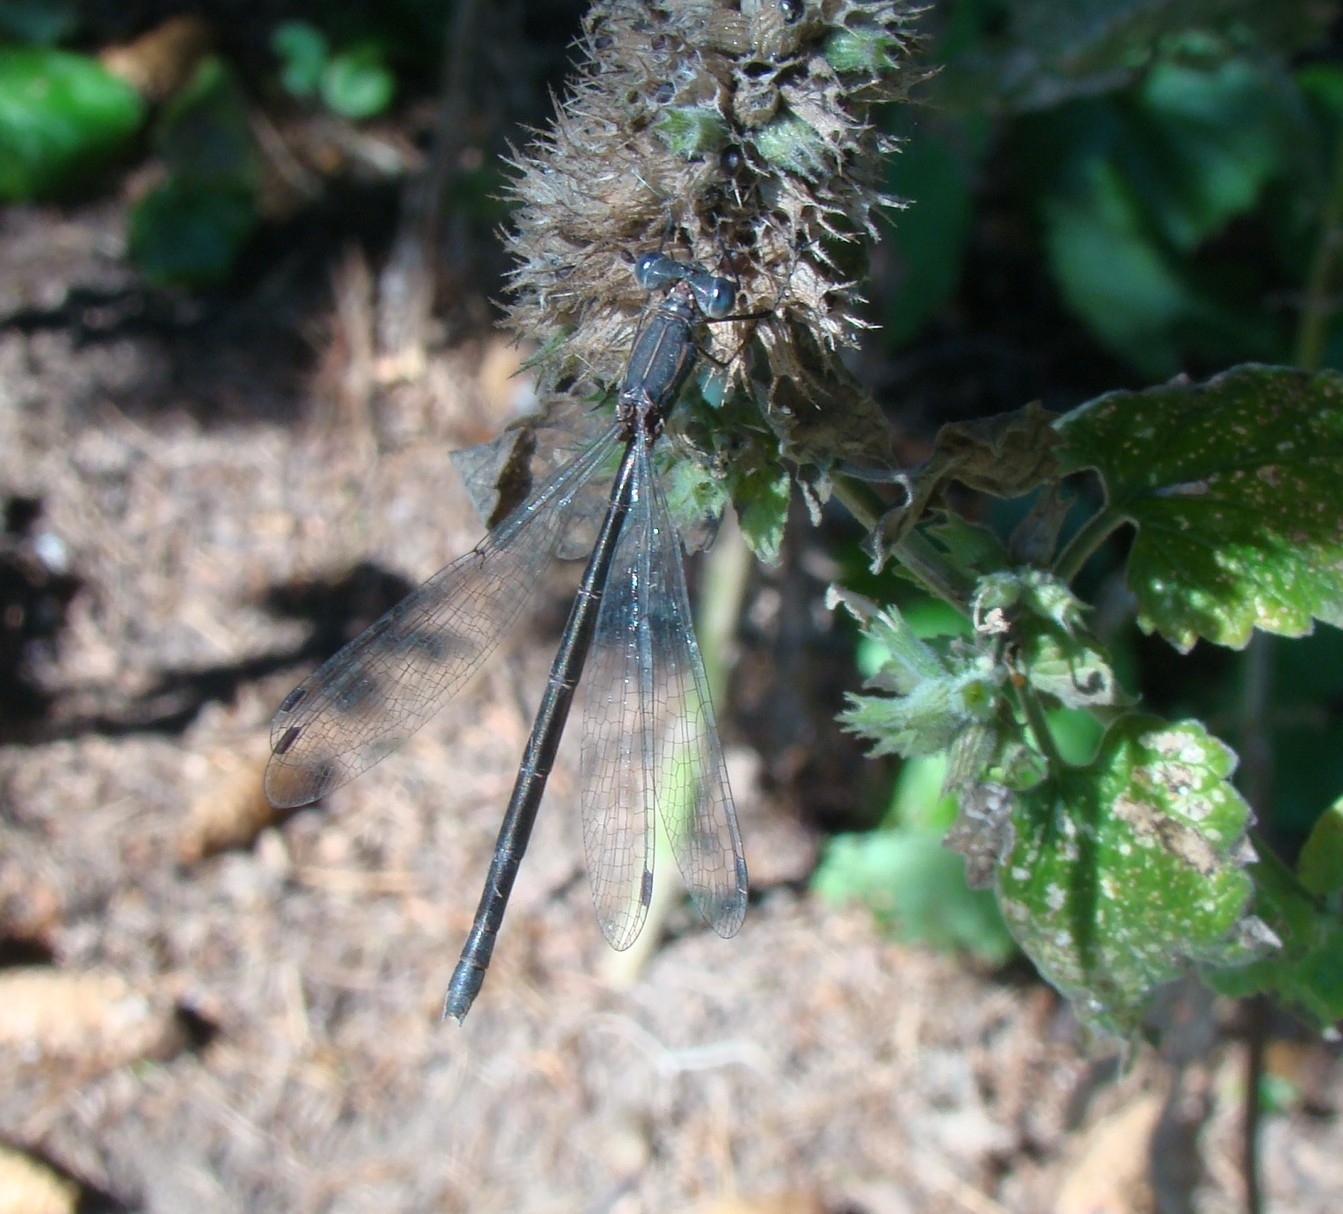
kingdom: Animalia
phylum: Arthropoda
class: Insecta
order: Odonata
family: Lestidae
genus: Lestes
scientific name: Lestes congener
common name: Spotted spreadwing
